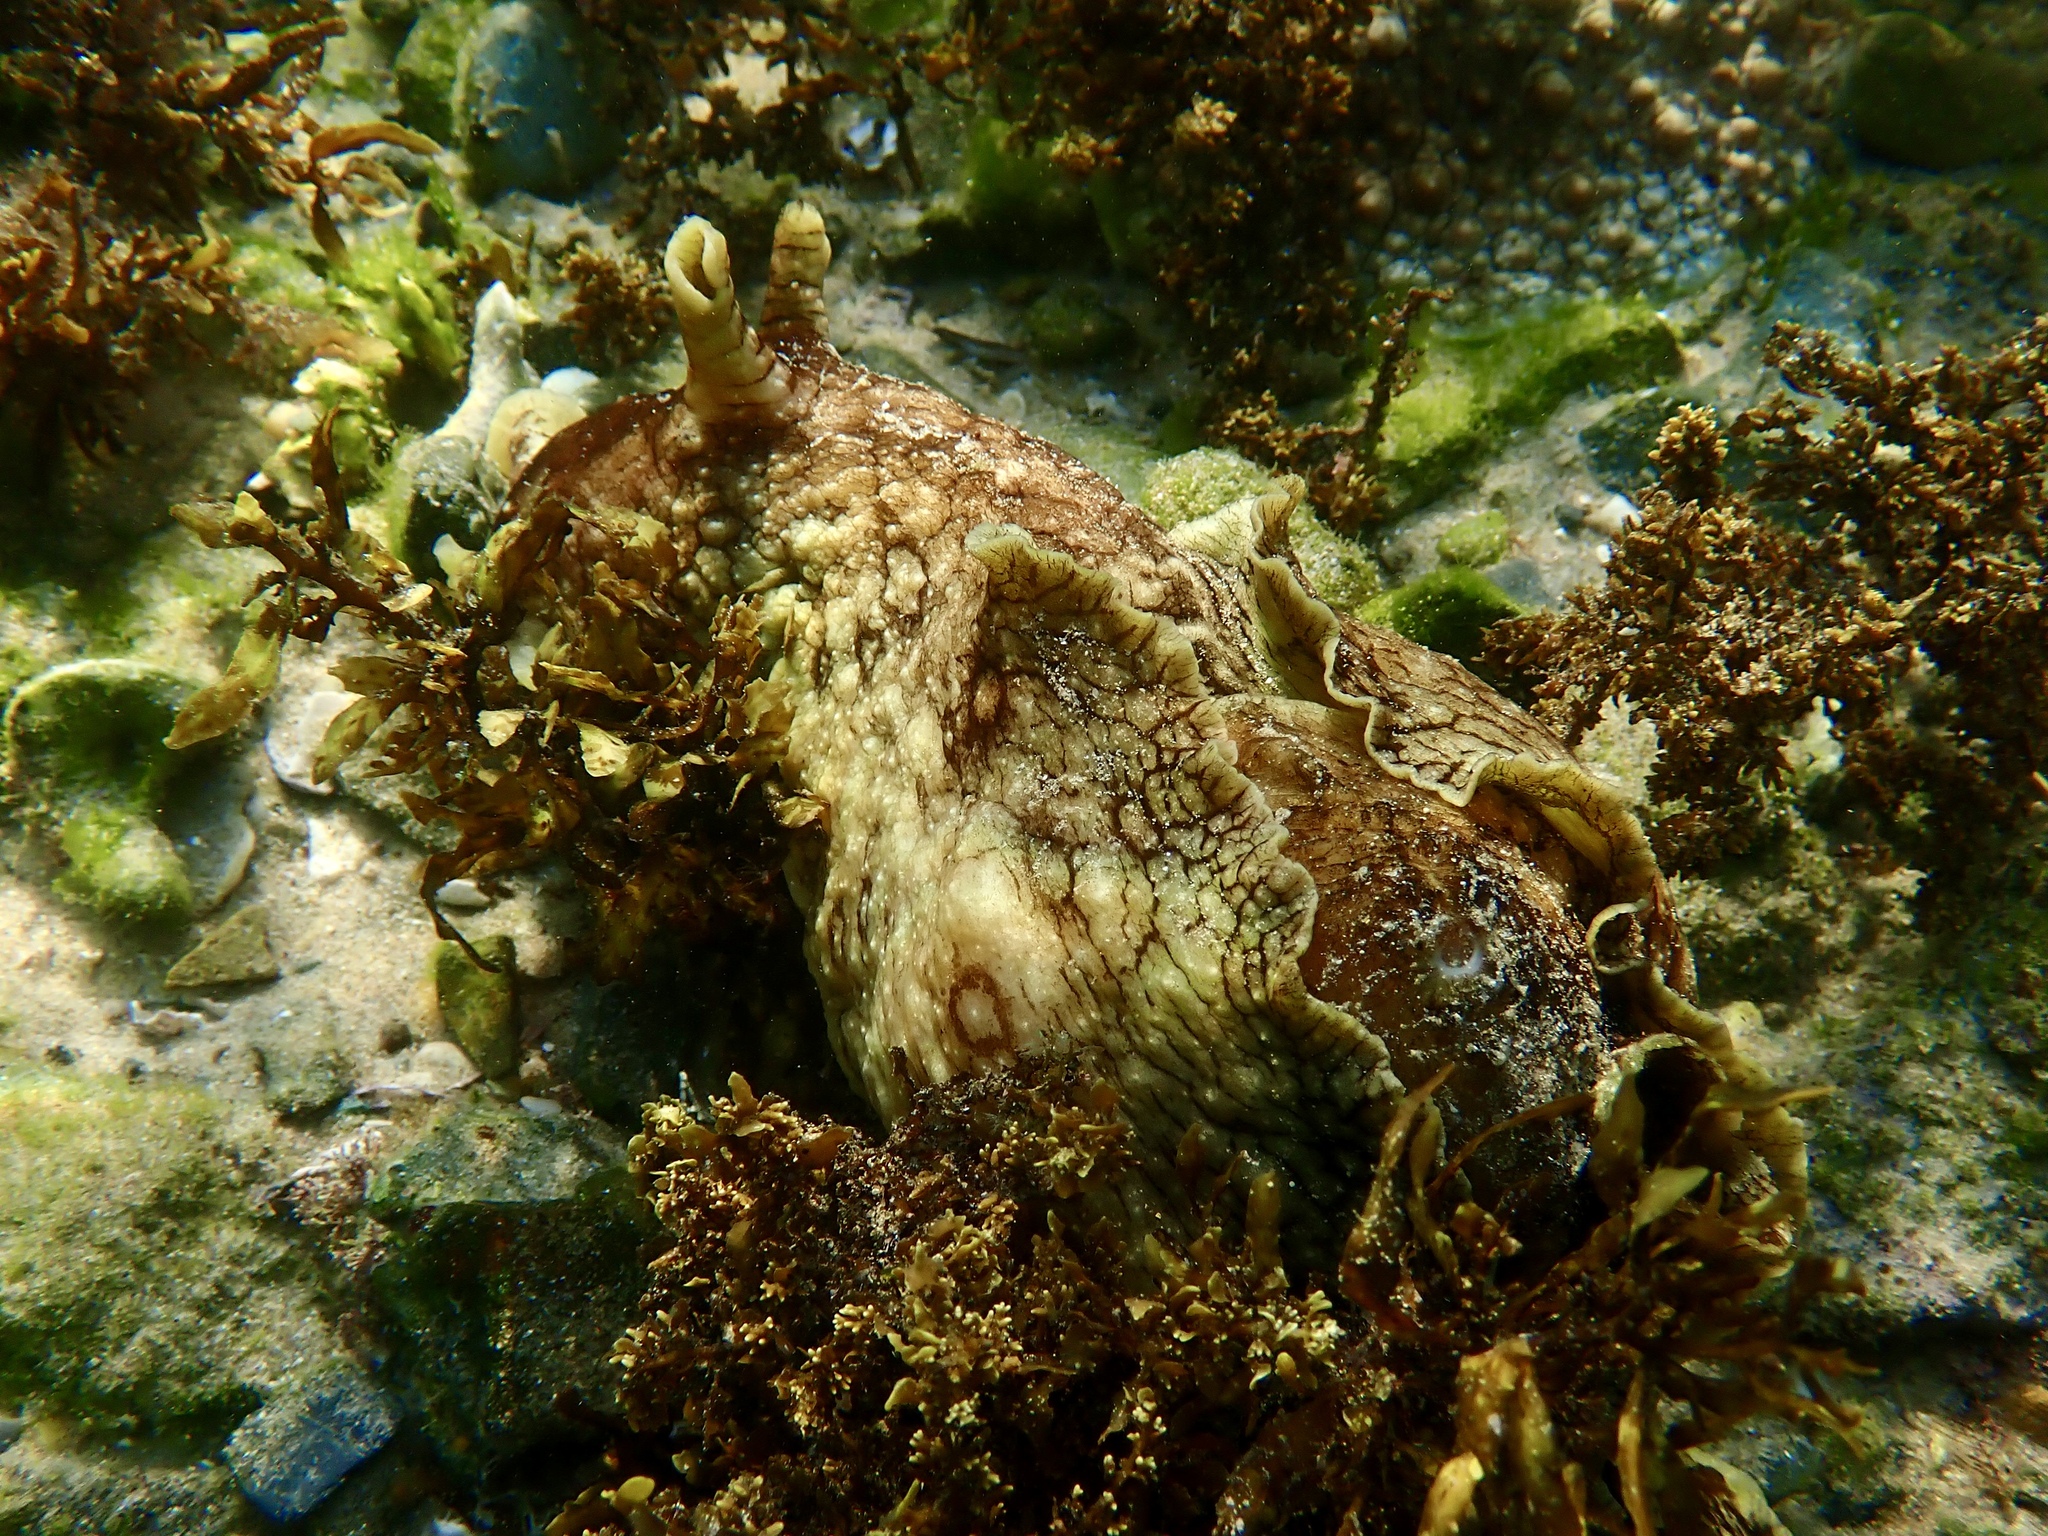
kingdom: Animalia
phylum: Mollusca
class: Gastropoda
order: Aplysiida
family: Aplysiidae
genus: Aplysia
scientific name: Aplysia argus
